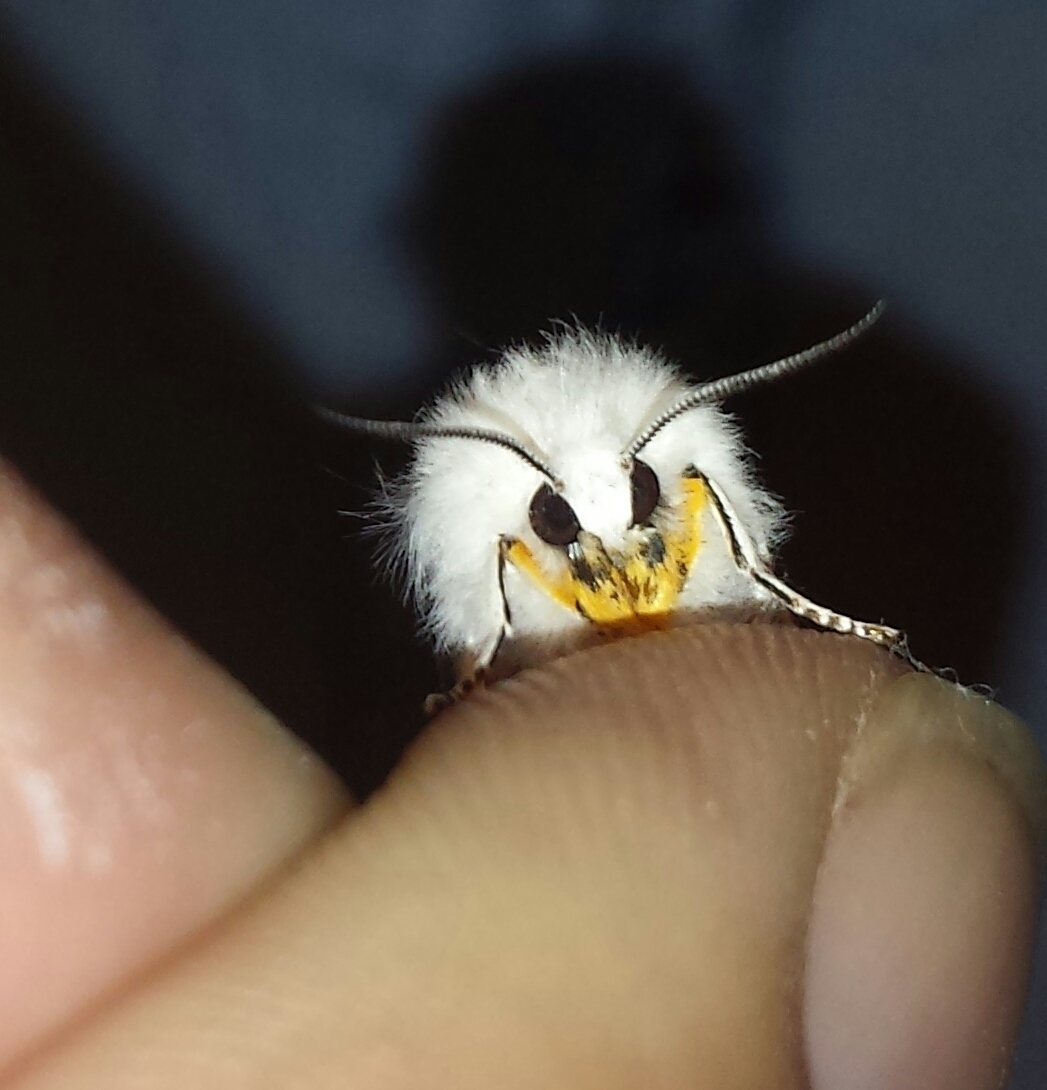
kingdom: Animalia
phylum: Arthropoda
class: Insecta
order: Lepidoptera
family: Erebidae
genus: Spilosoma
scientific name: Spilosoma virginica
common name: Virginia tiger moth
